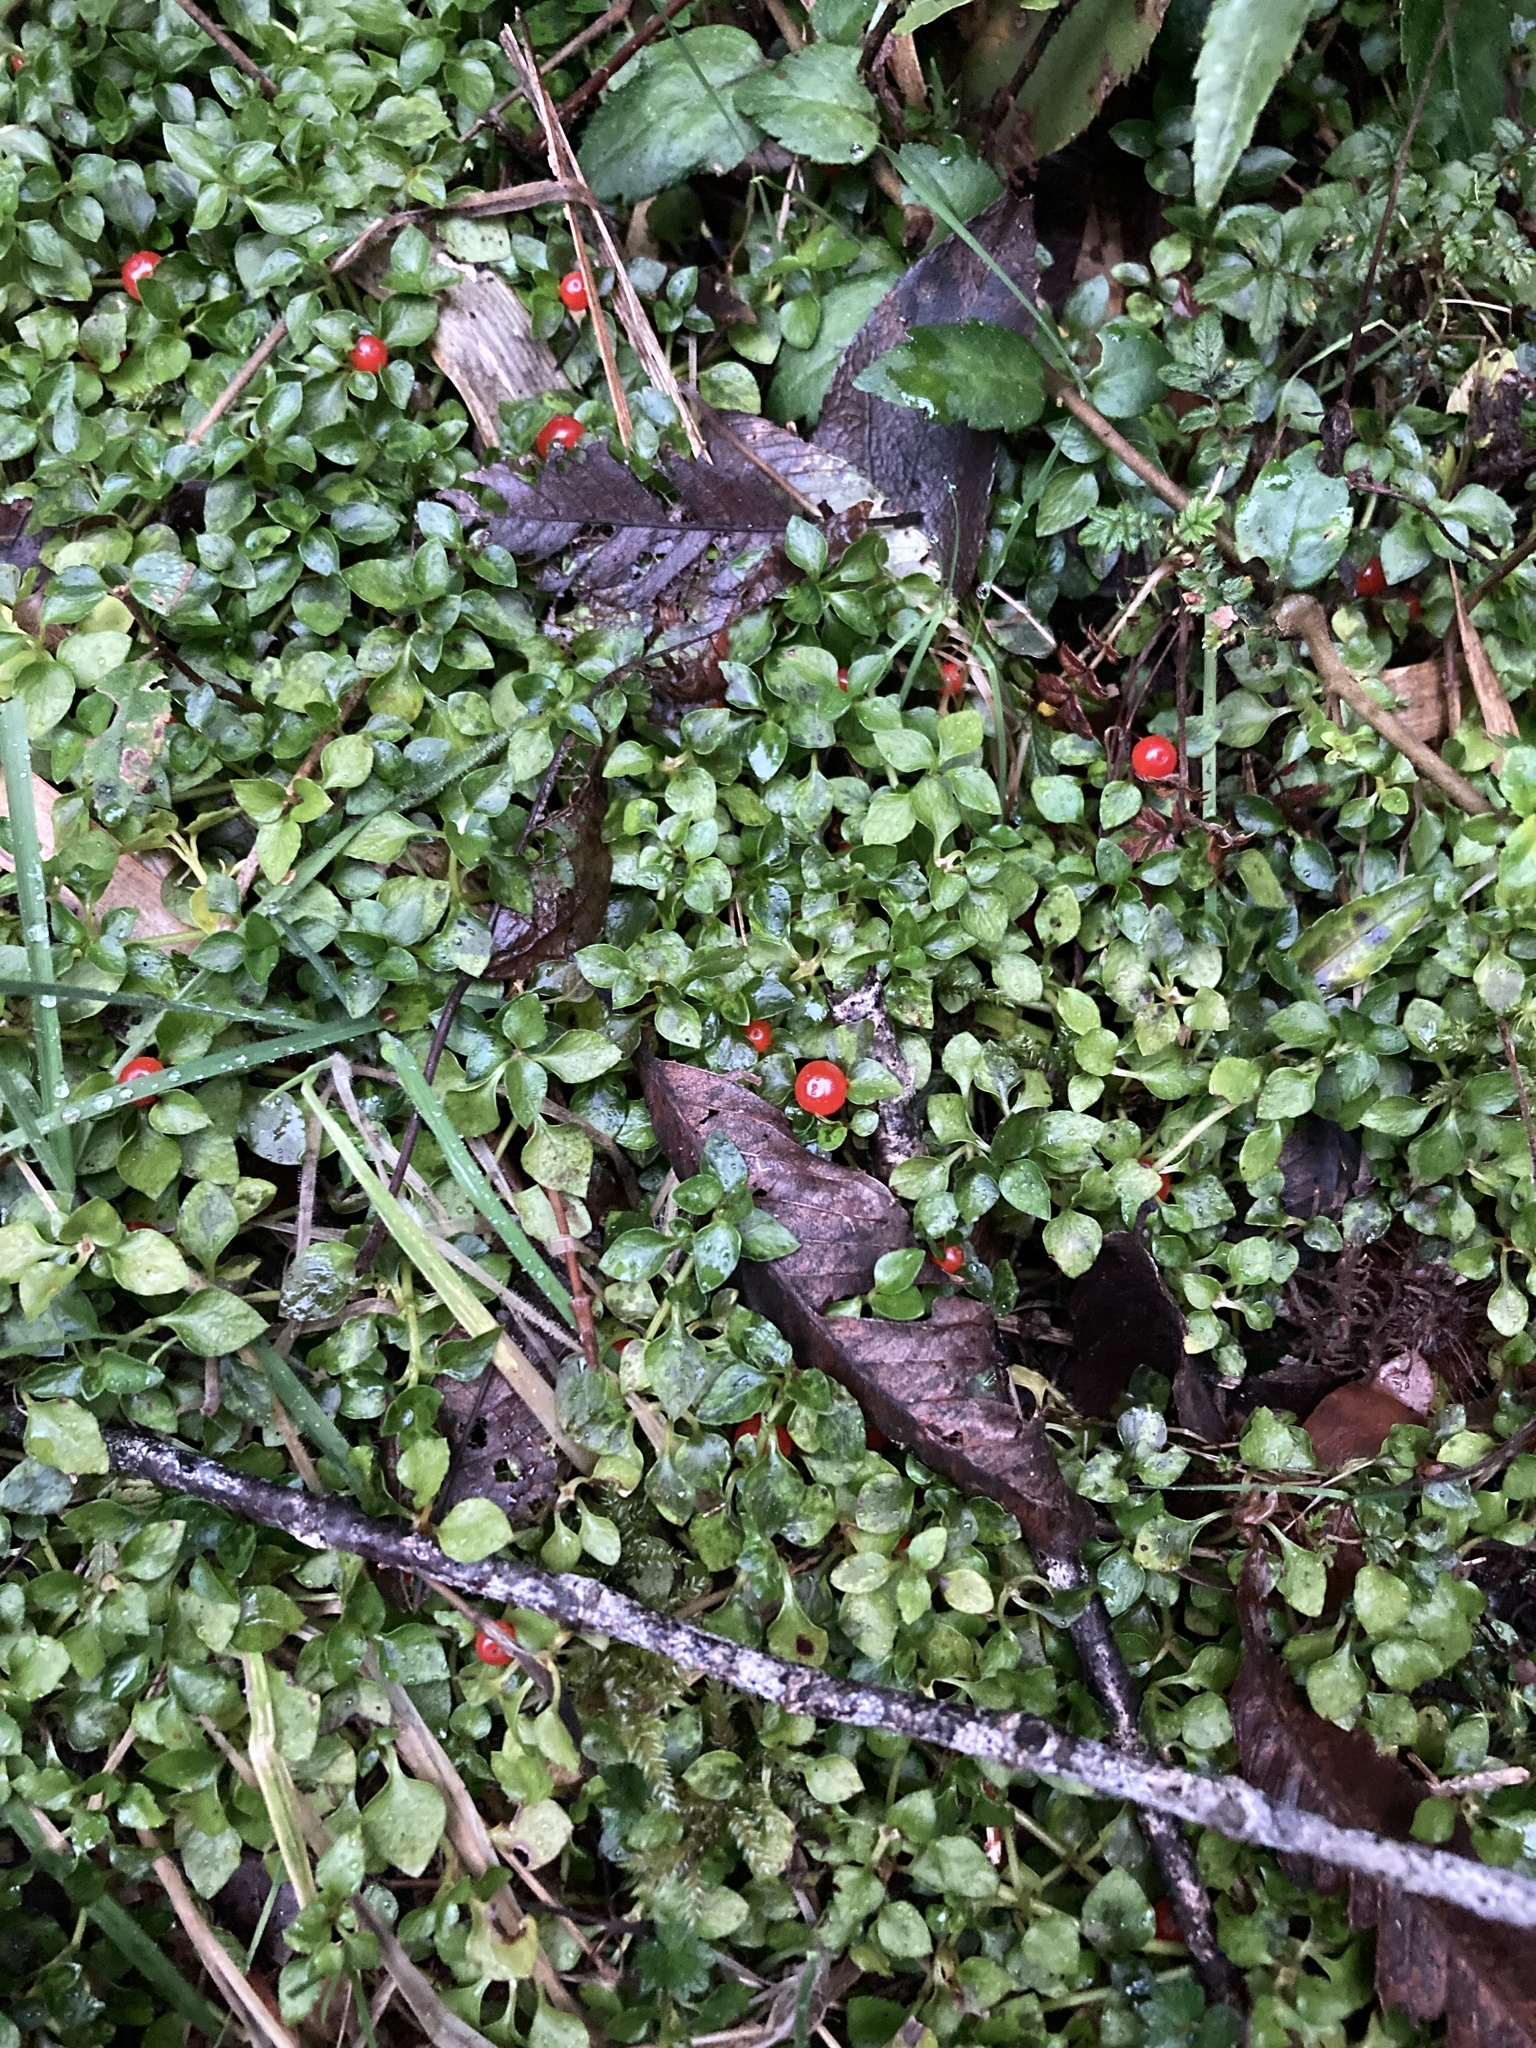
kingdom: Plantae
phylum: Tracheophyta
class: Magnoliopsida
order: Gentianales
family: Rubiaceae
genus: Nertera
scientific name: Nertera granadensis
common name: Beadplant
